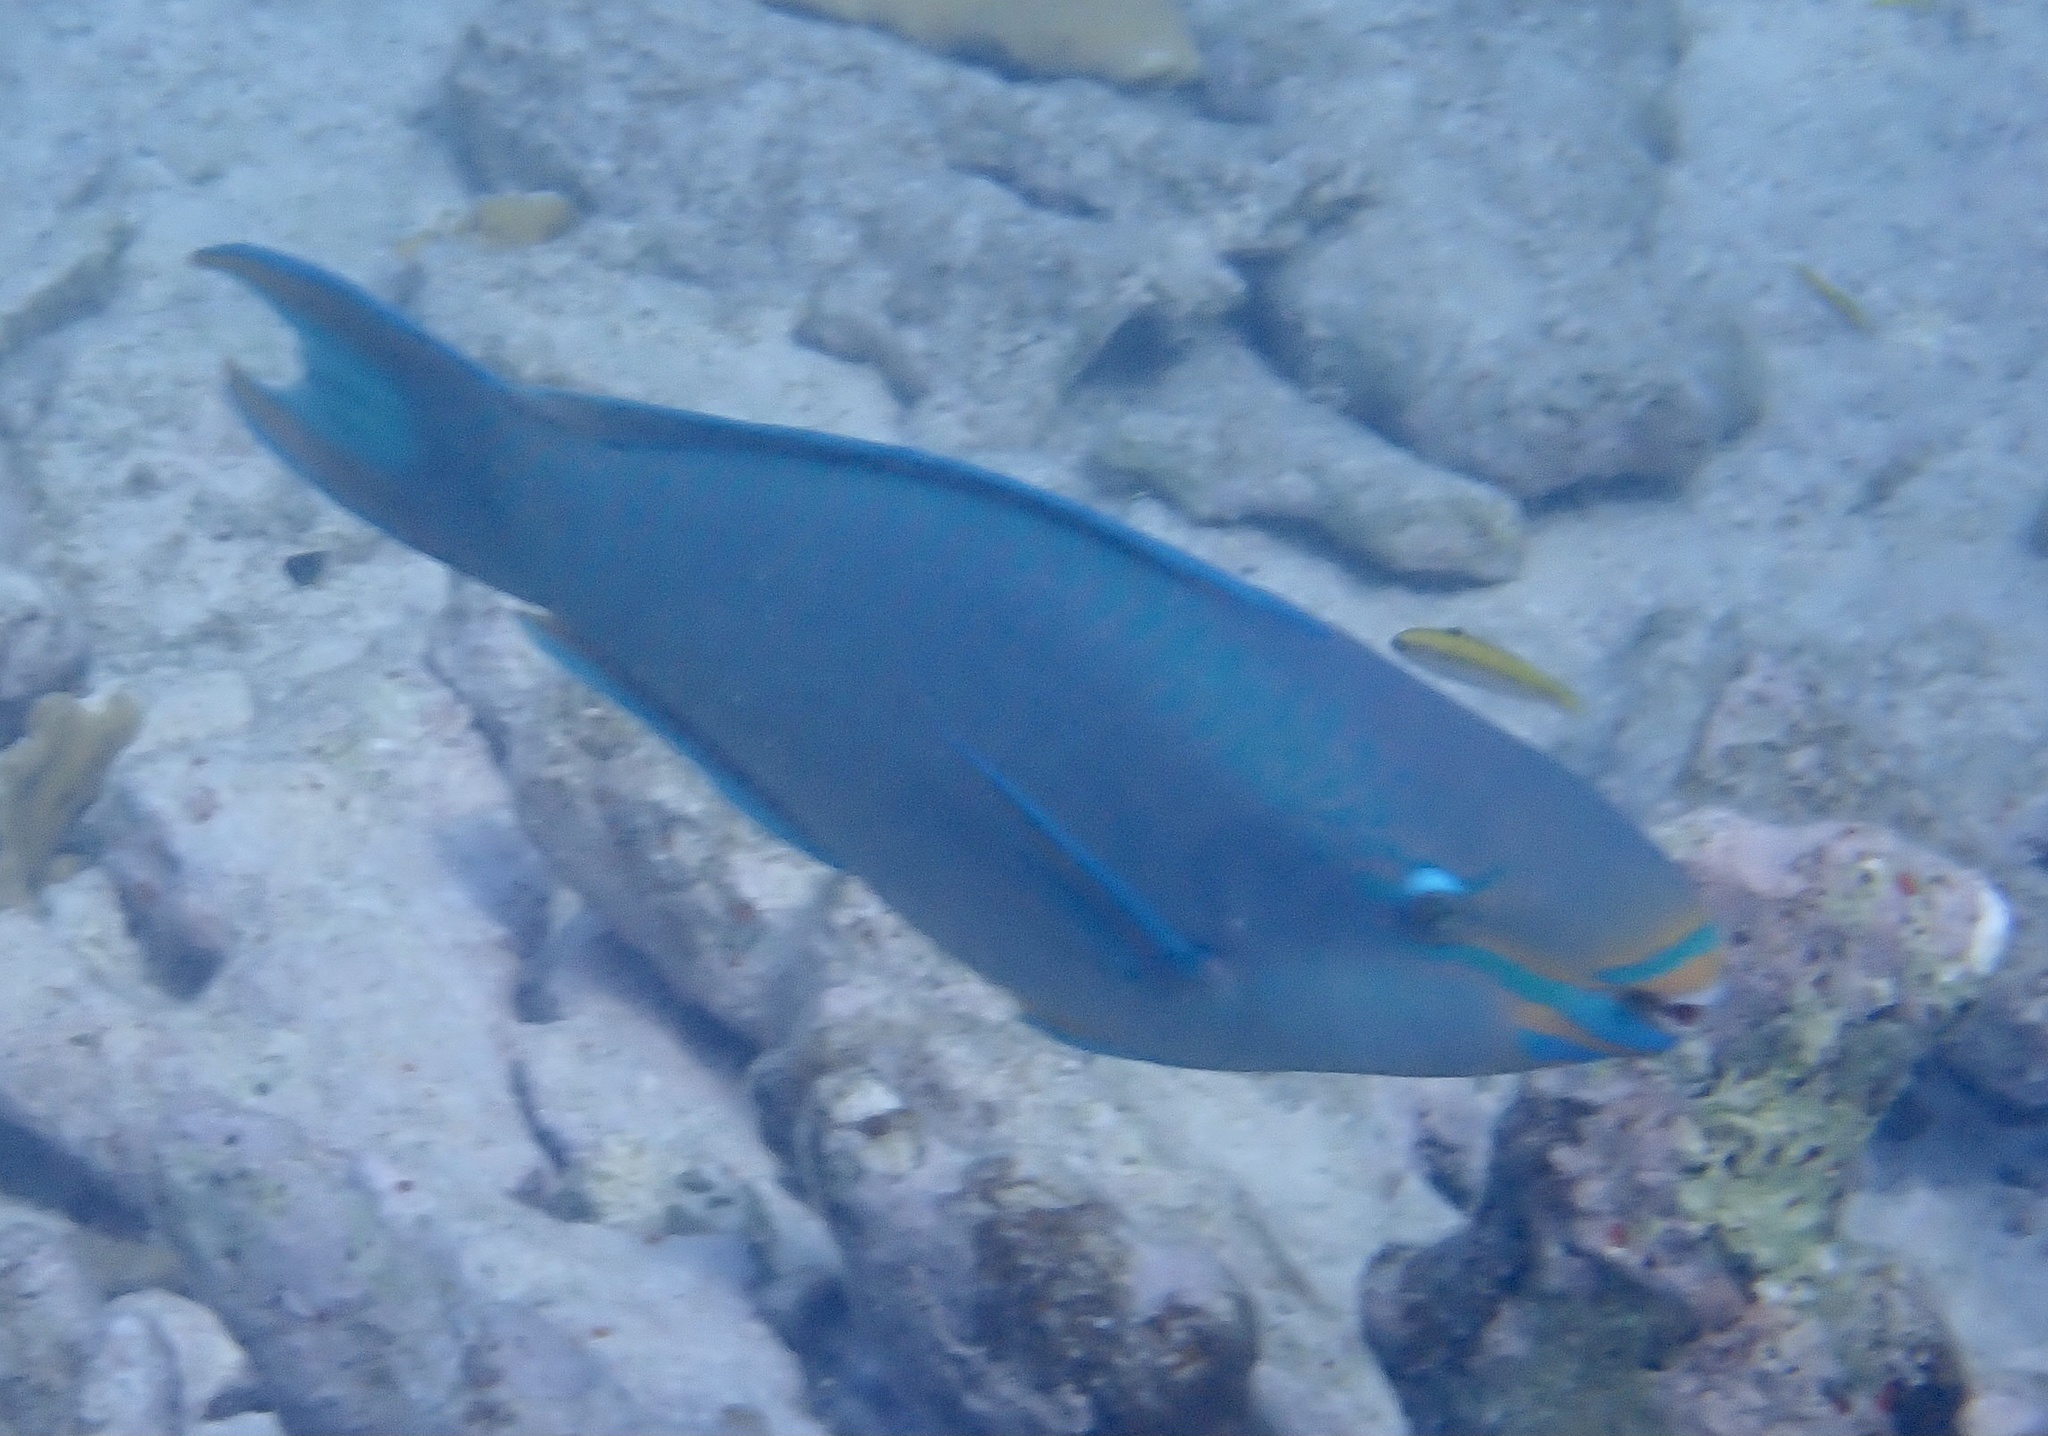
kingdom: Animalia
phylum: Chordata
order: Perciformes
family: Scaridae
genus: Scarus
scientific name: Scarus vetula
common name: Queen parrotfish
